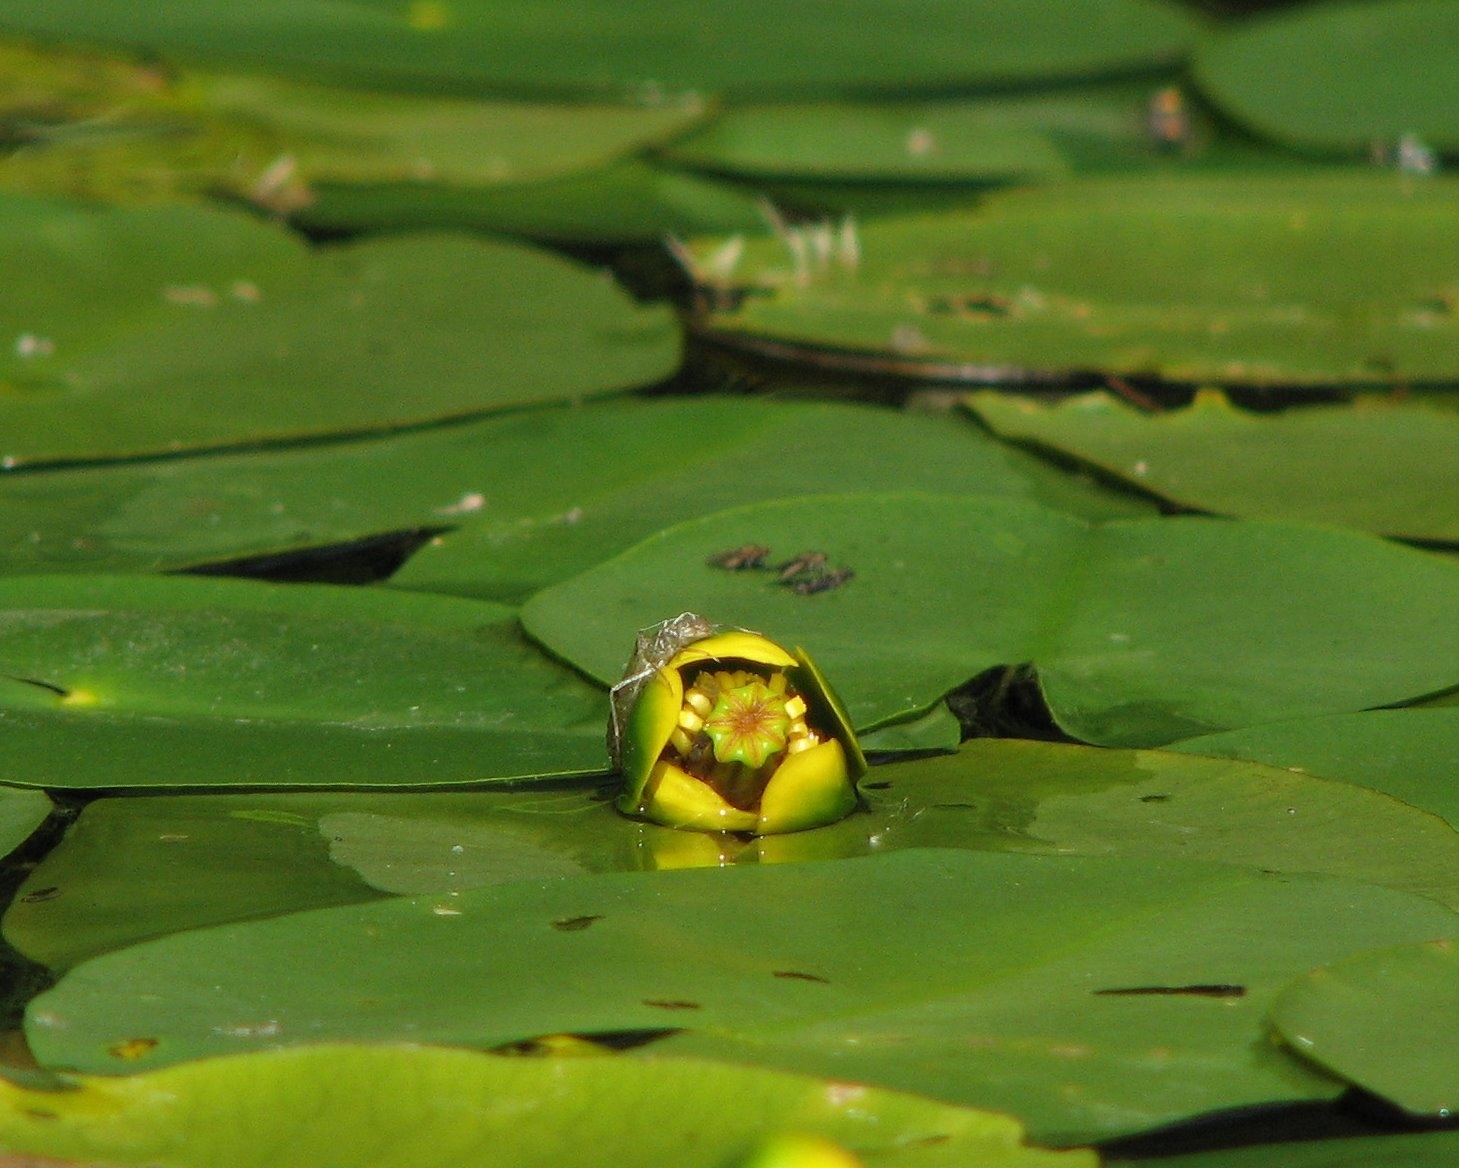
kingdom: Plantae
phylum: Tracheophyta
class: Magnoliopsida
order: Nymphaeales
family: Nymphaeaceae
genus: Nuphar
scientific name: Nuphar pumila
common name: Least water-lily
